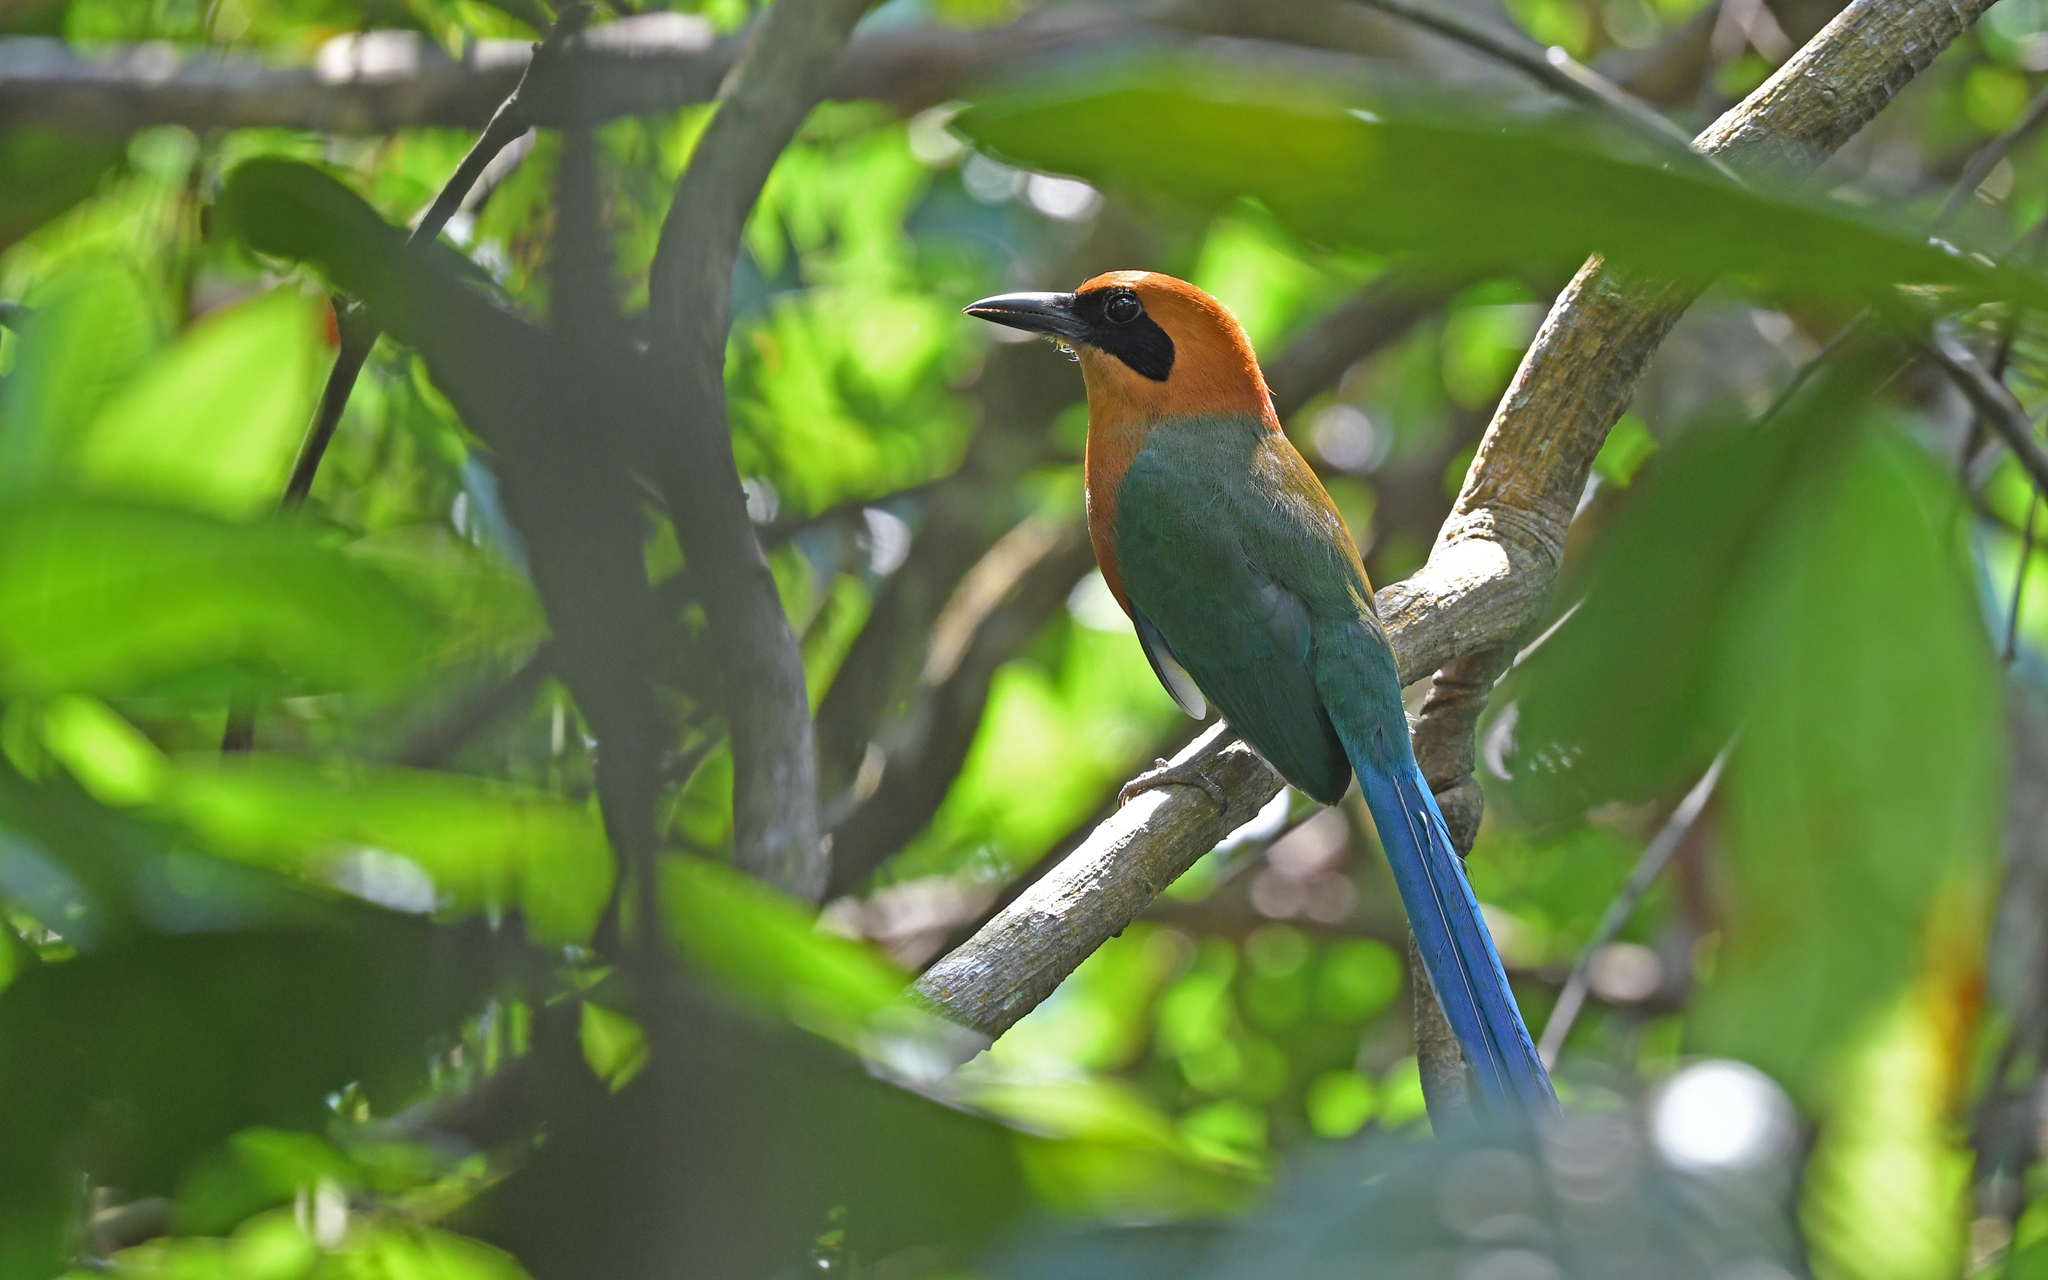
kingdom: Animalia
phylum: Chordata
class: Aves
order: Coraciiformes
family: Momotidae
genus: Baryphthengus
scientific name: Baryphthengus martii
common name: Rufous motmot
